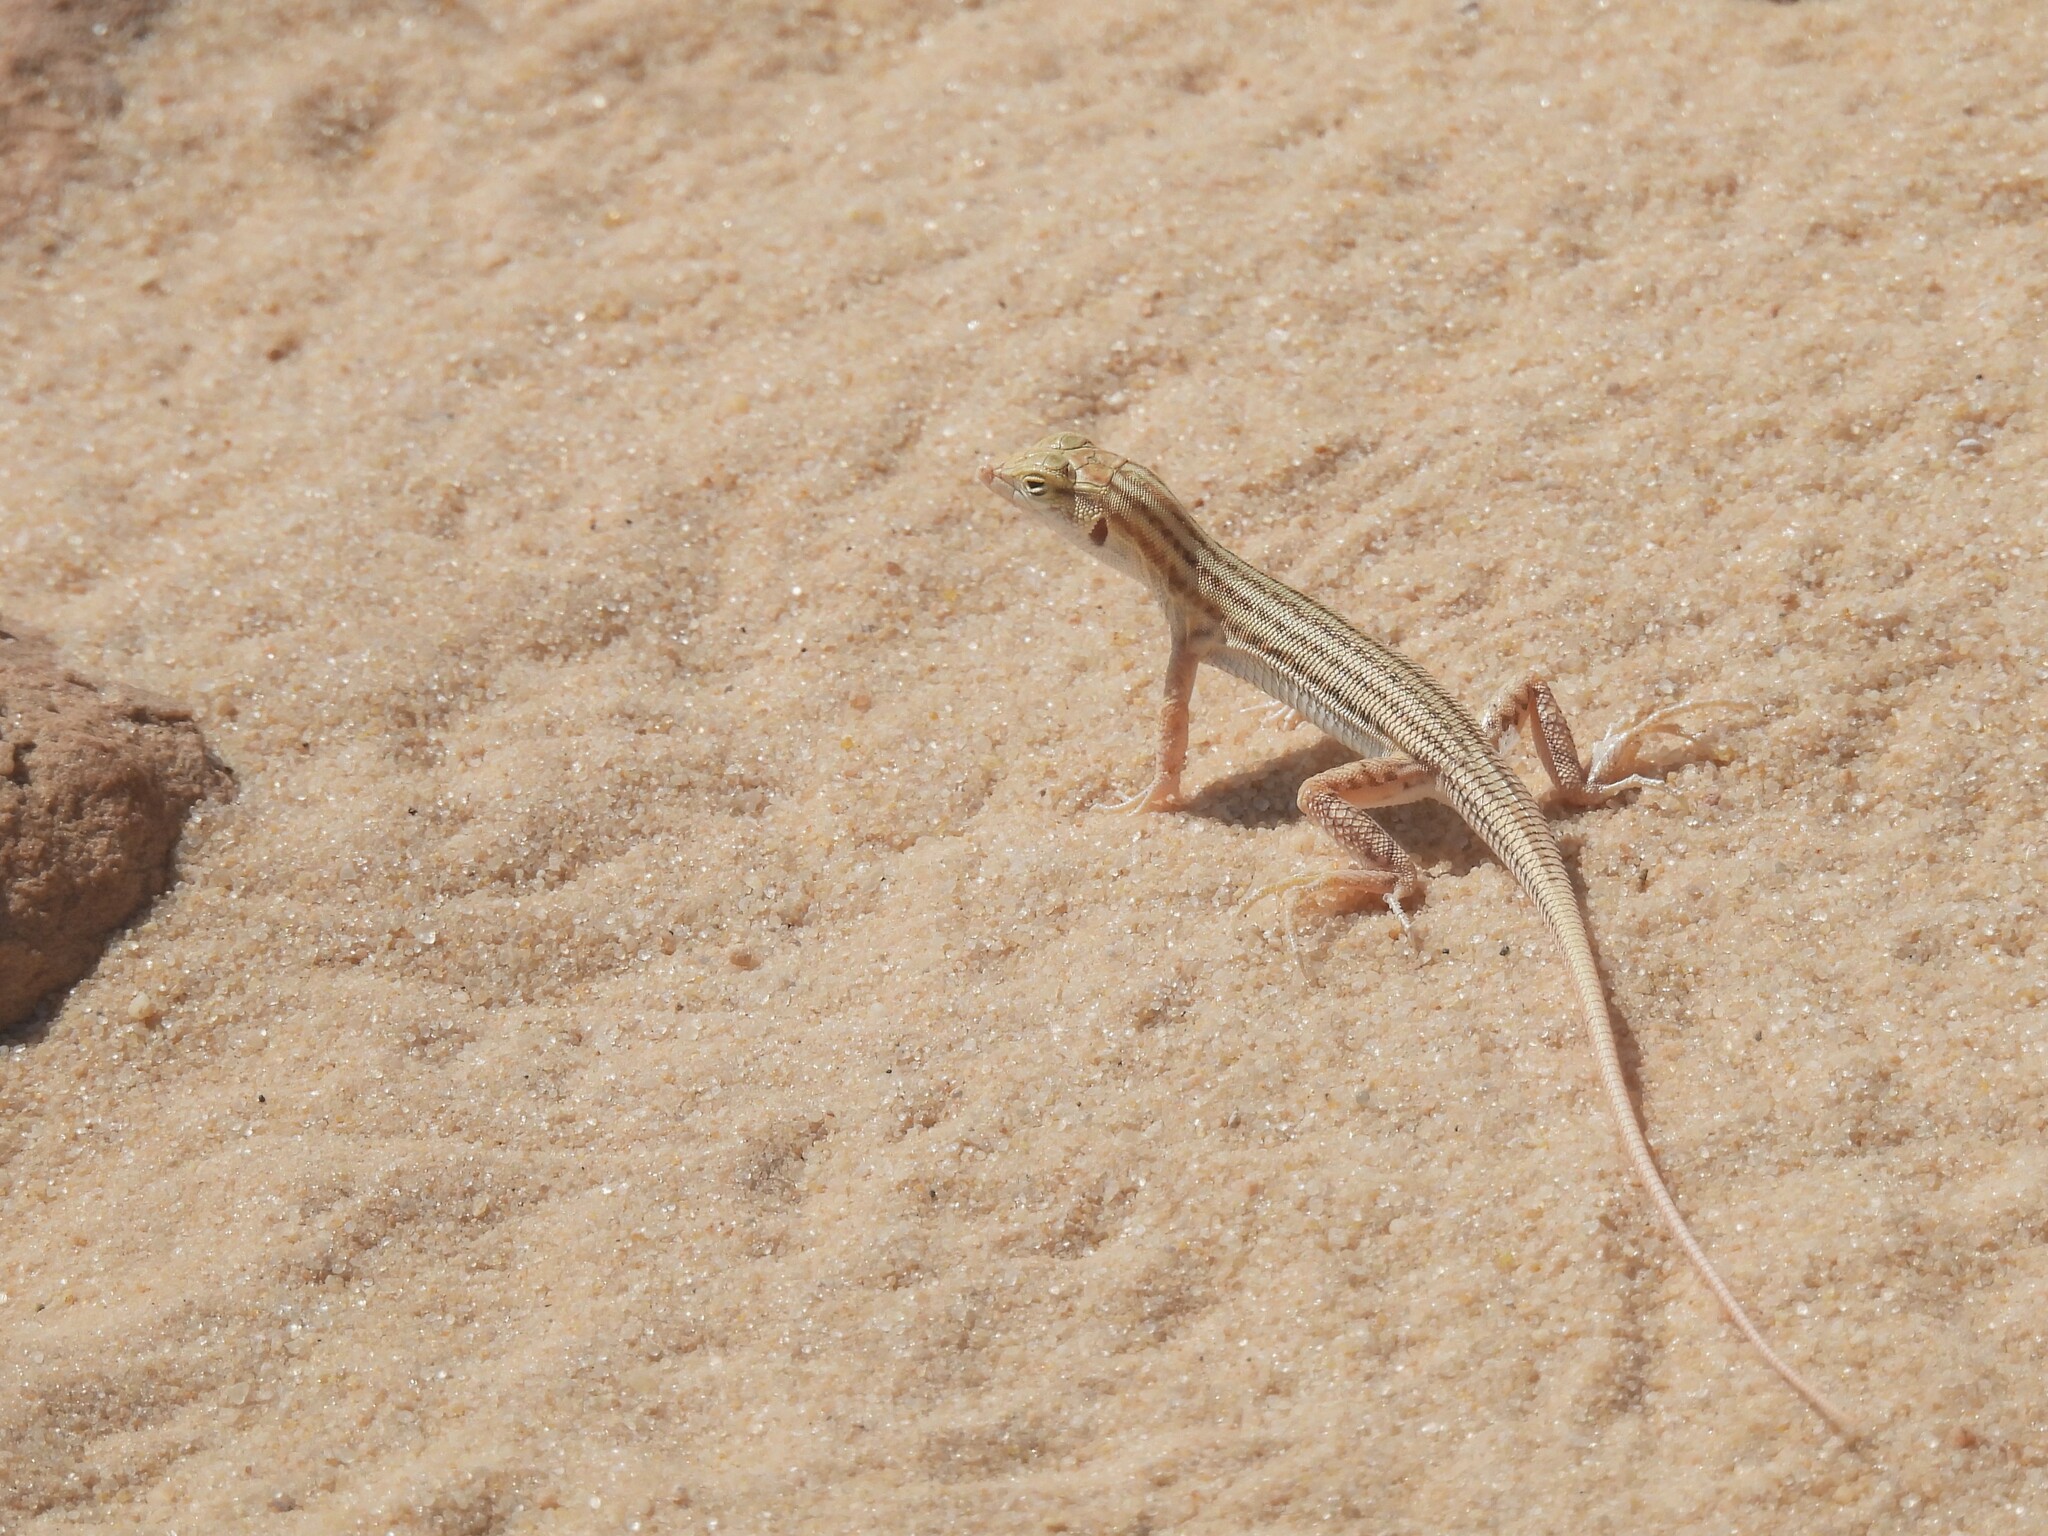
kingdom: Animalia
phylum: Chordata
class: Squamata
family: Lacertidae
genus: Acanthodactylus
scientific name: Acanthodactylus opheodurus
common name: Arnold's fringe-fingered lizard
